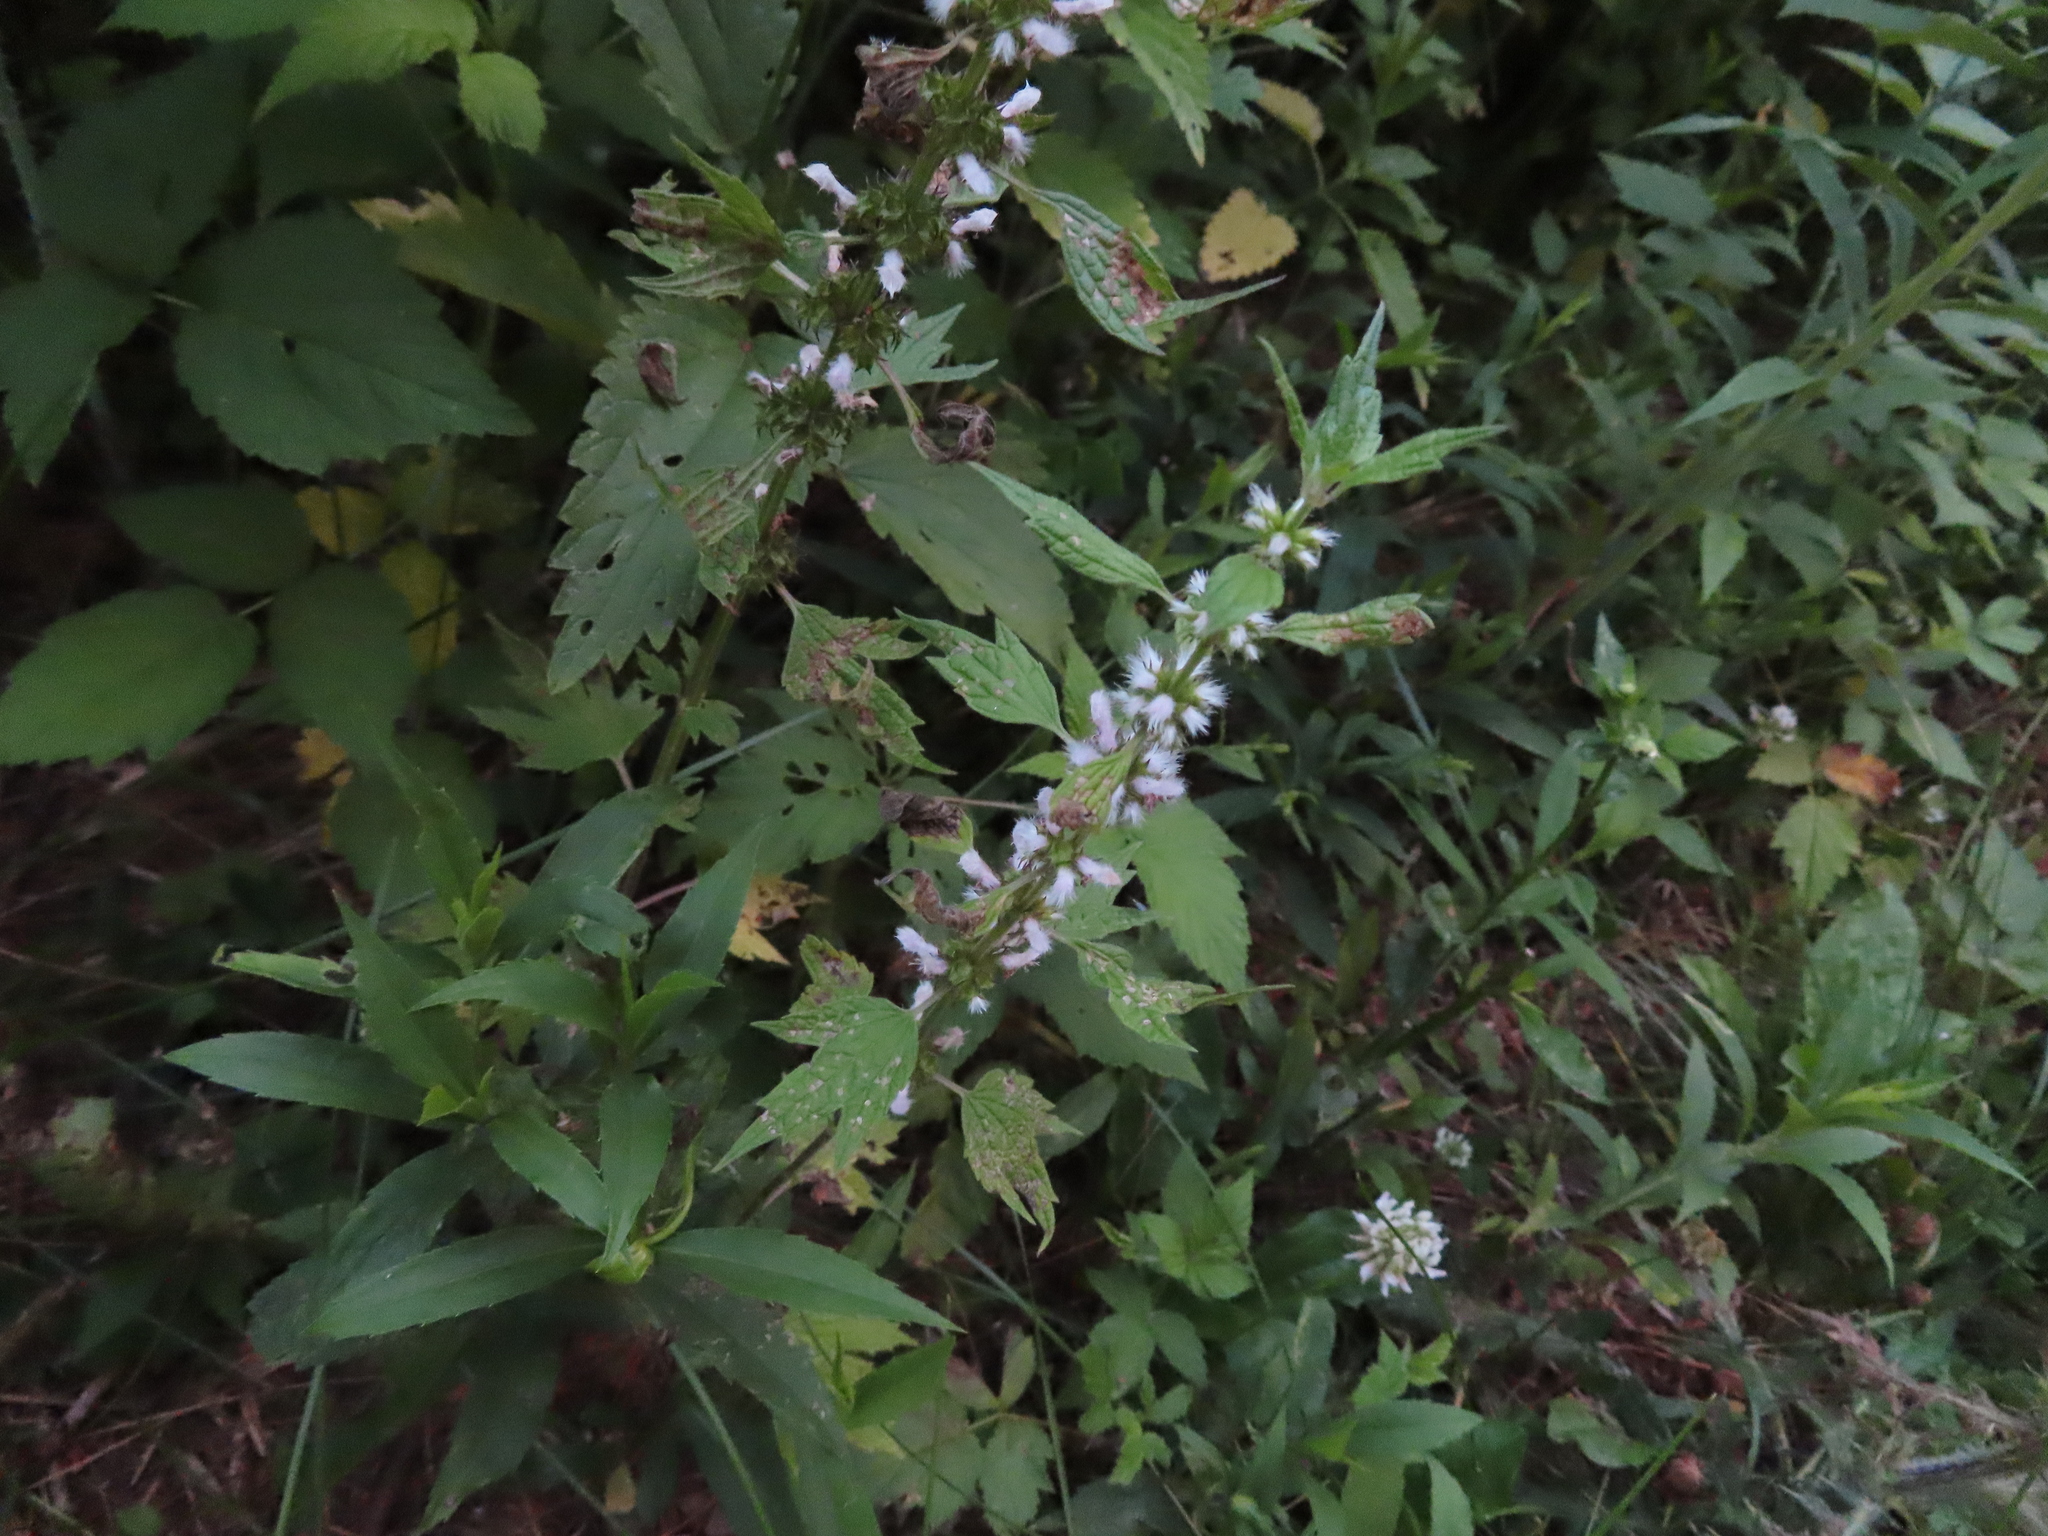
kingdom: Plantae
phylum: Tracheophyta
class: Magnoliopsida
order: Lamiales
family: Lamiaceae
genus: Leonurus
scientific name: Leonurus cardiaca
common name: Motherwort
